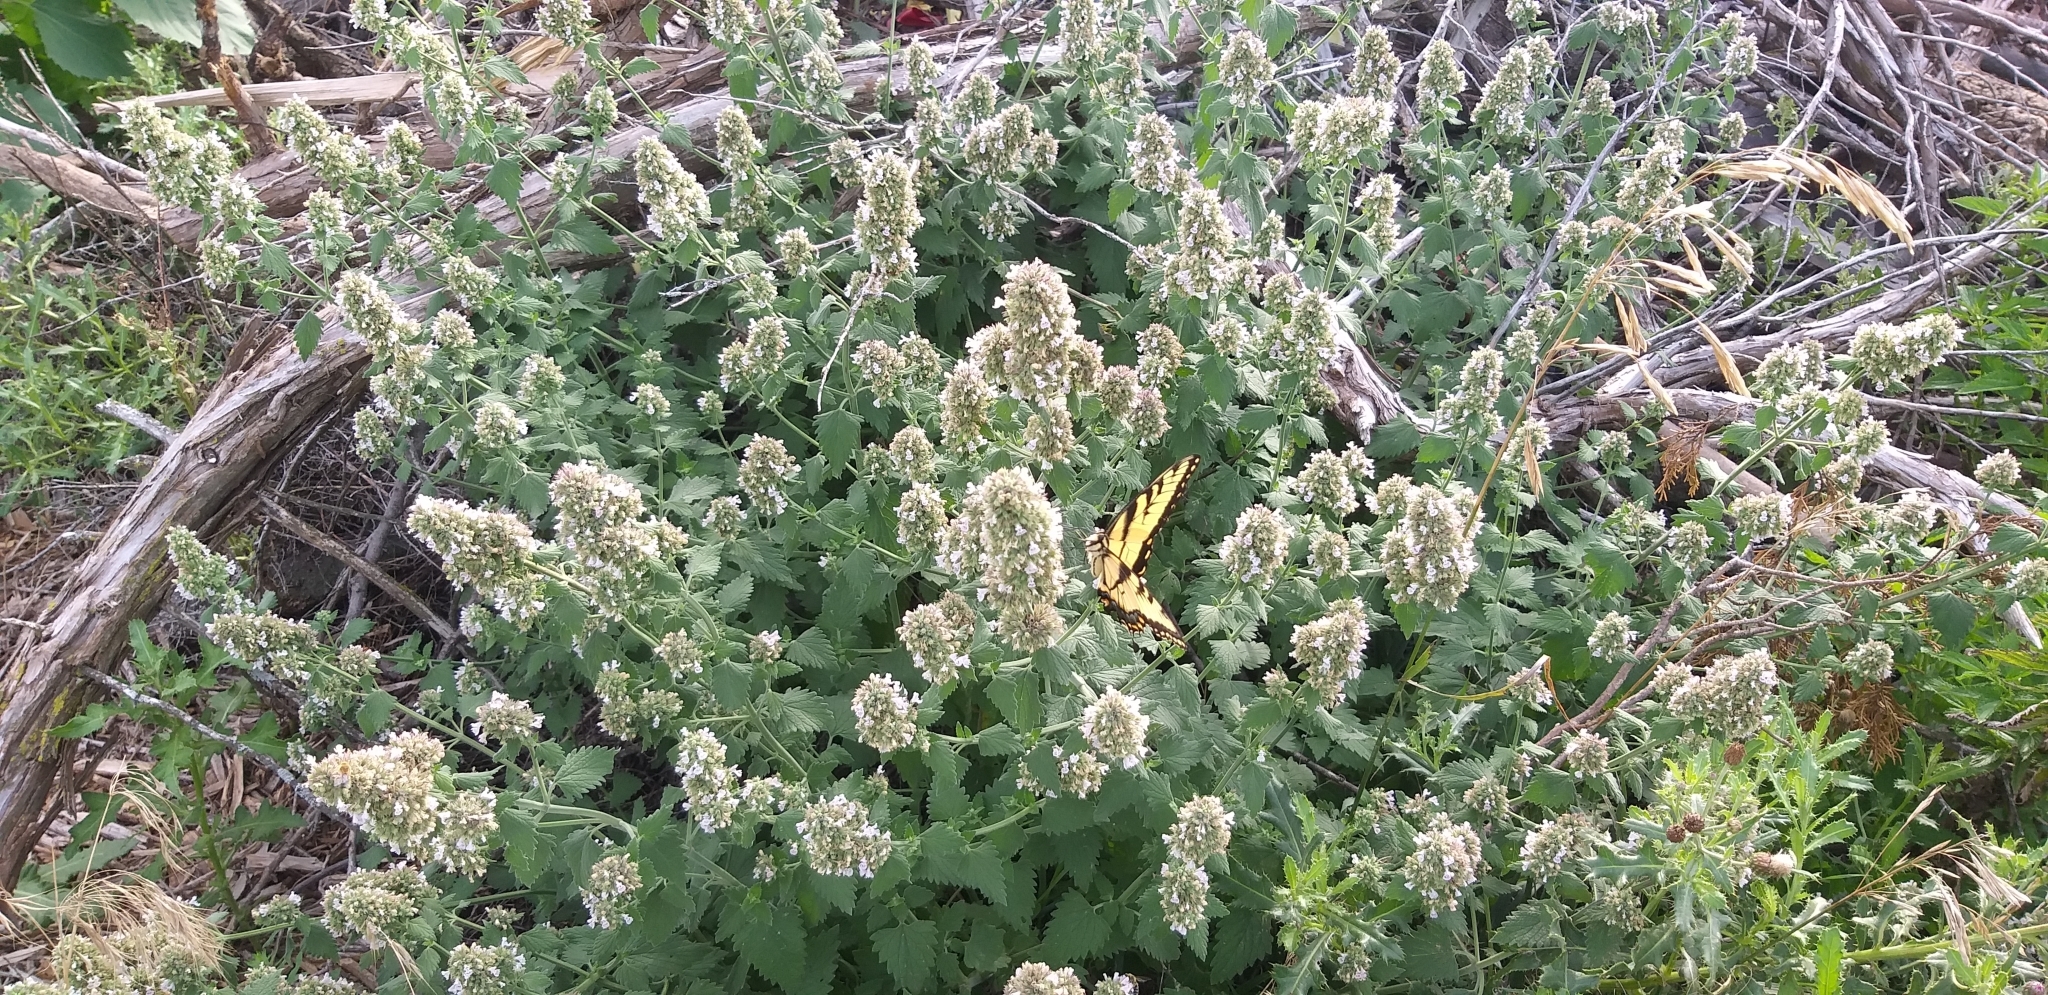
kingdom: Animalia
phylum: Arthropoda
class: Insecta
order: Lepidoptera
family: Papilionidae
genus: Papilio
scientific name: Papilio glaucus
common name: Tiger swallowtail
